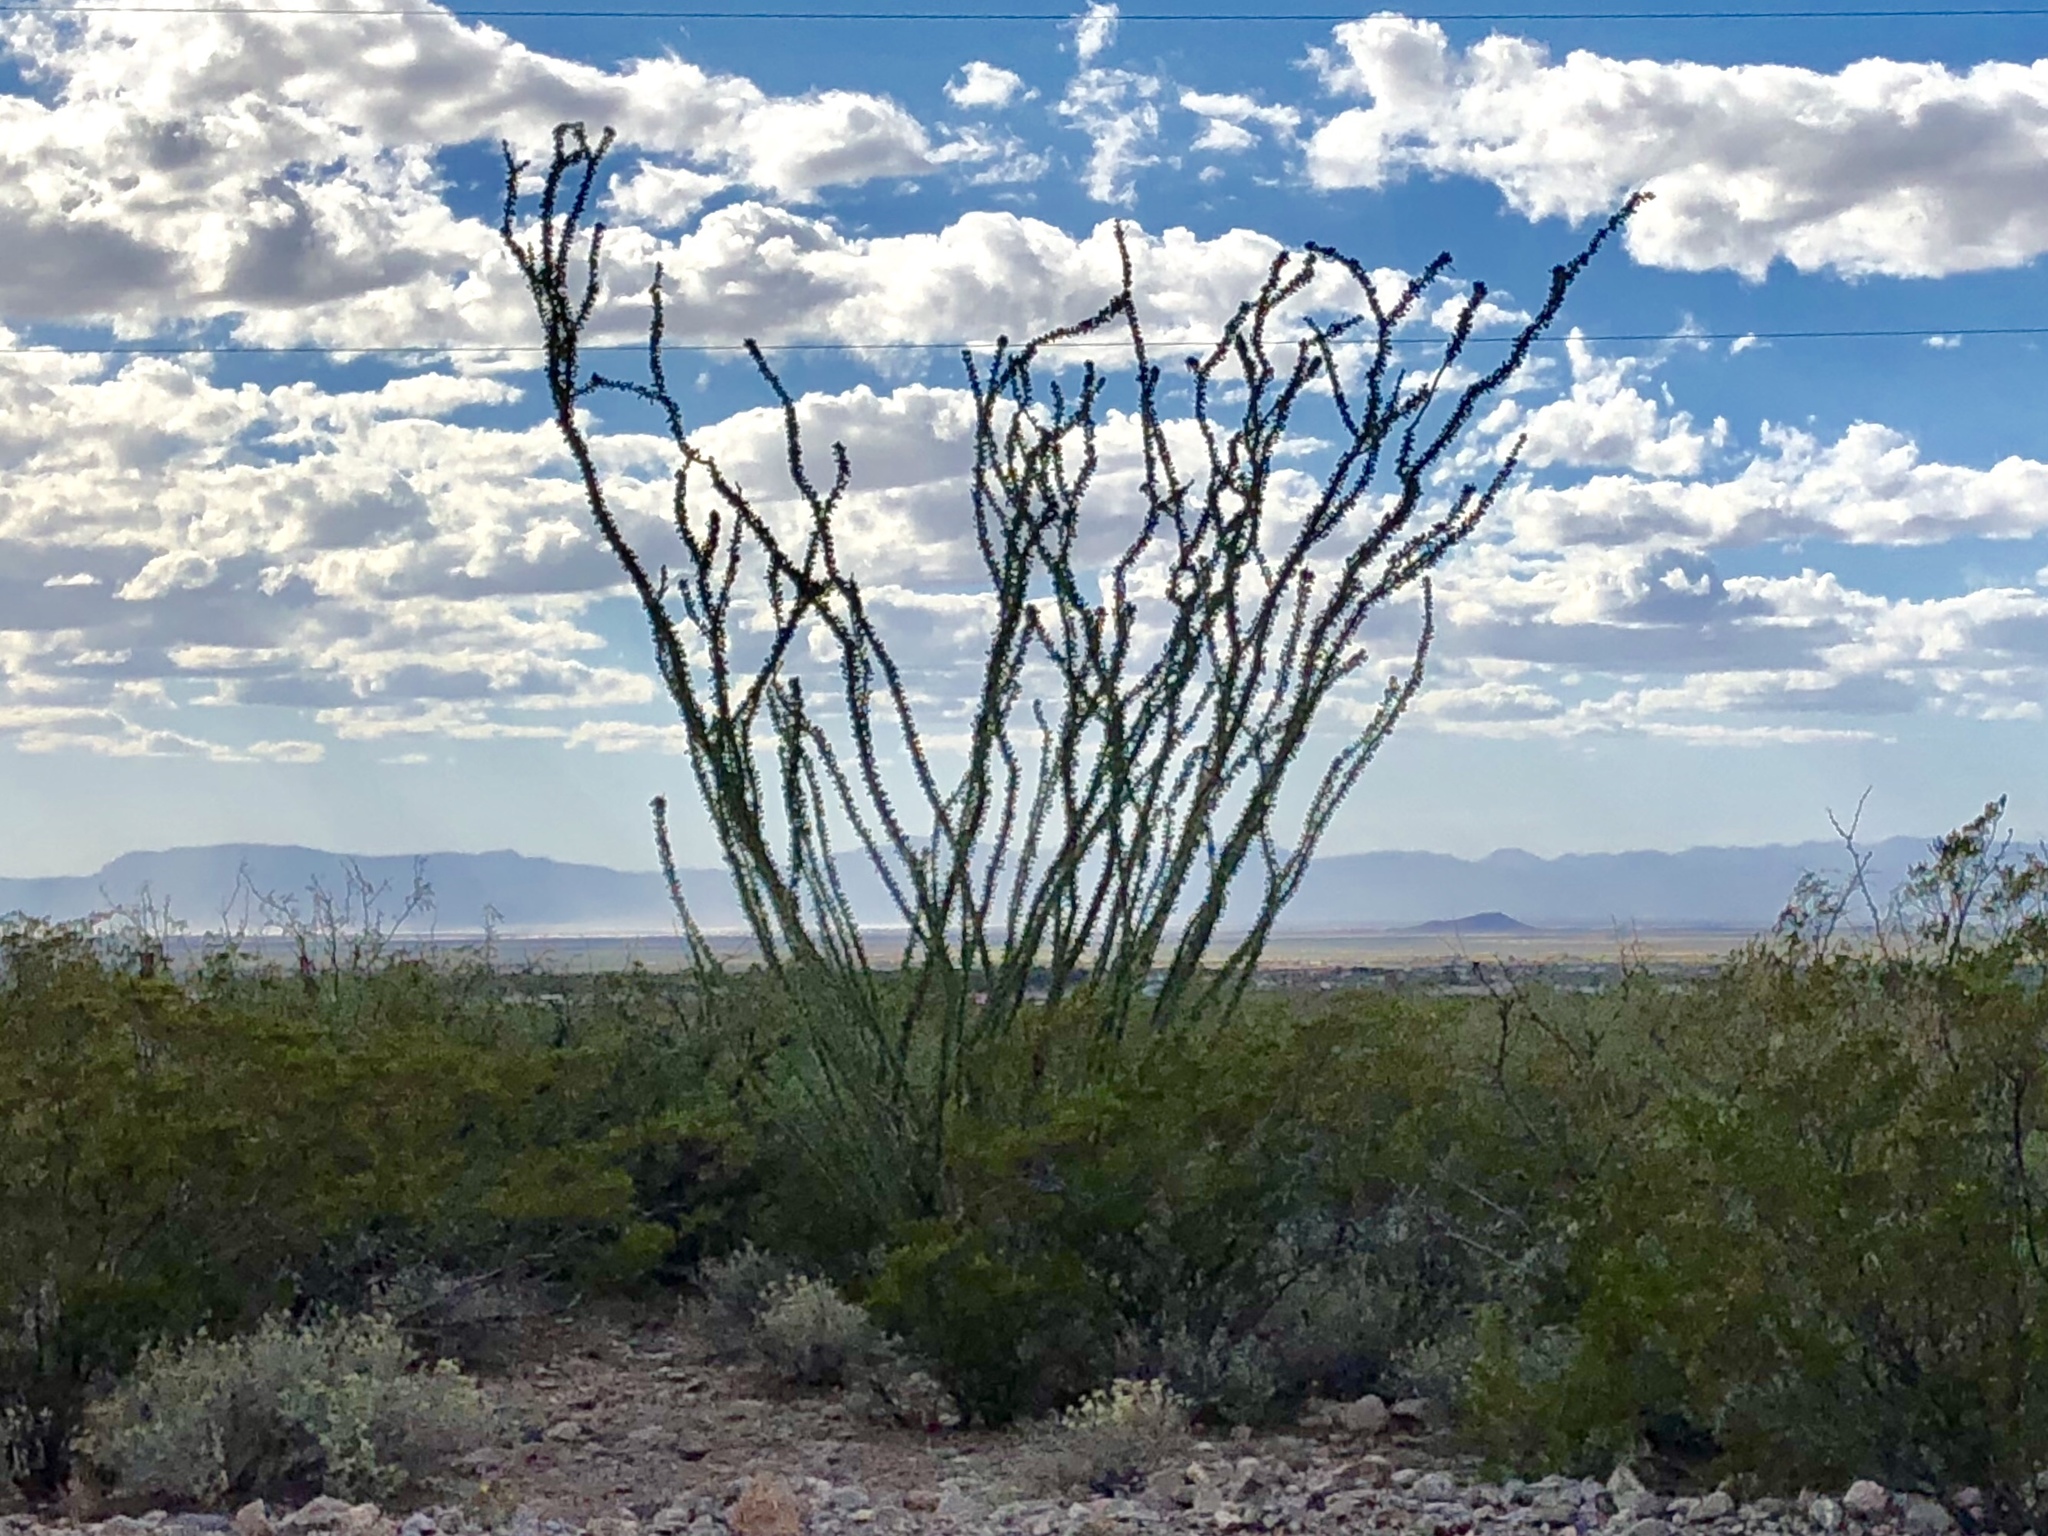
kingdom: Plantae
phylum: Tracheophyta
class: Magnoliopsida
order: Ericales
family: Fouquieriaceae
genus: Fouquieria
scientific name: Fouquieria splendens
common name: Vine-cactus
